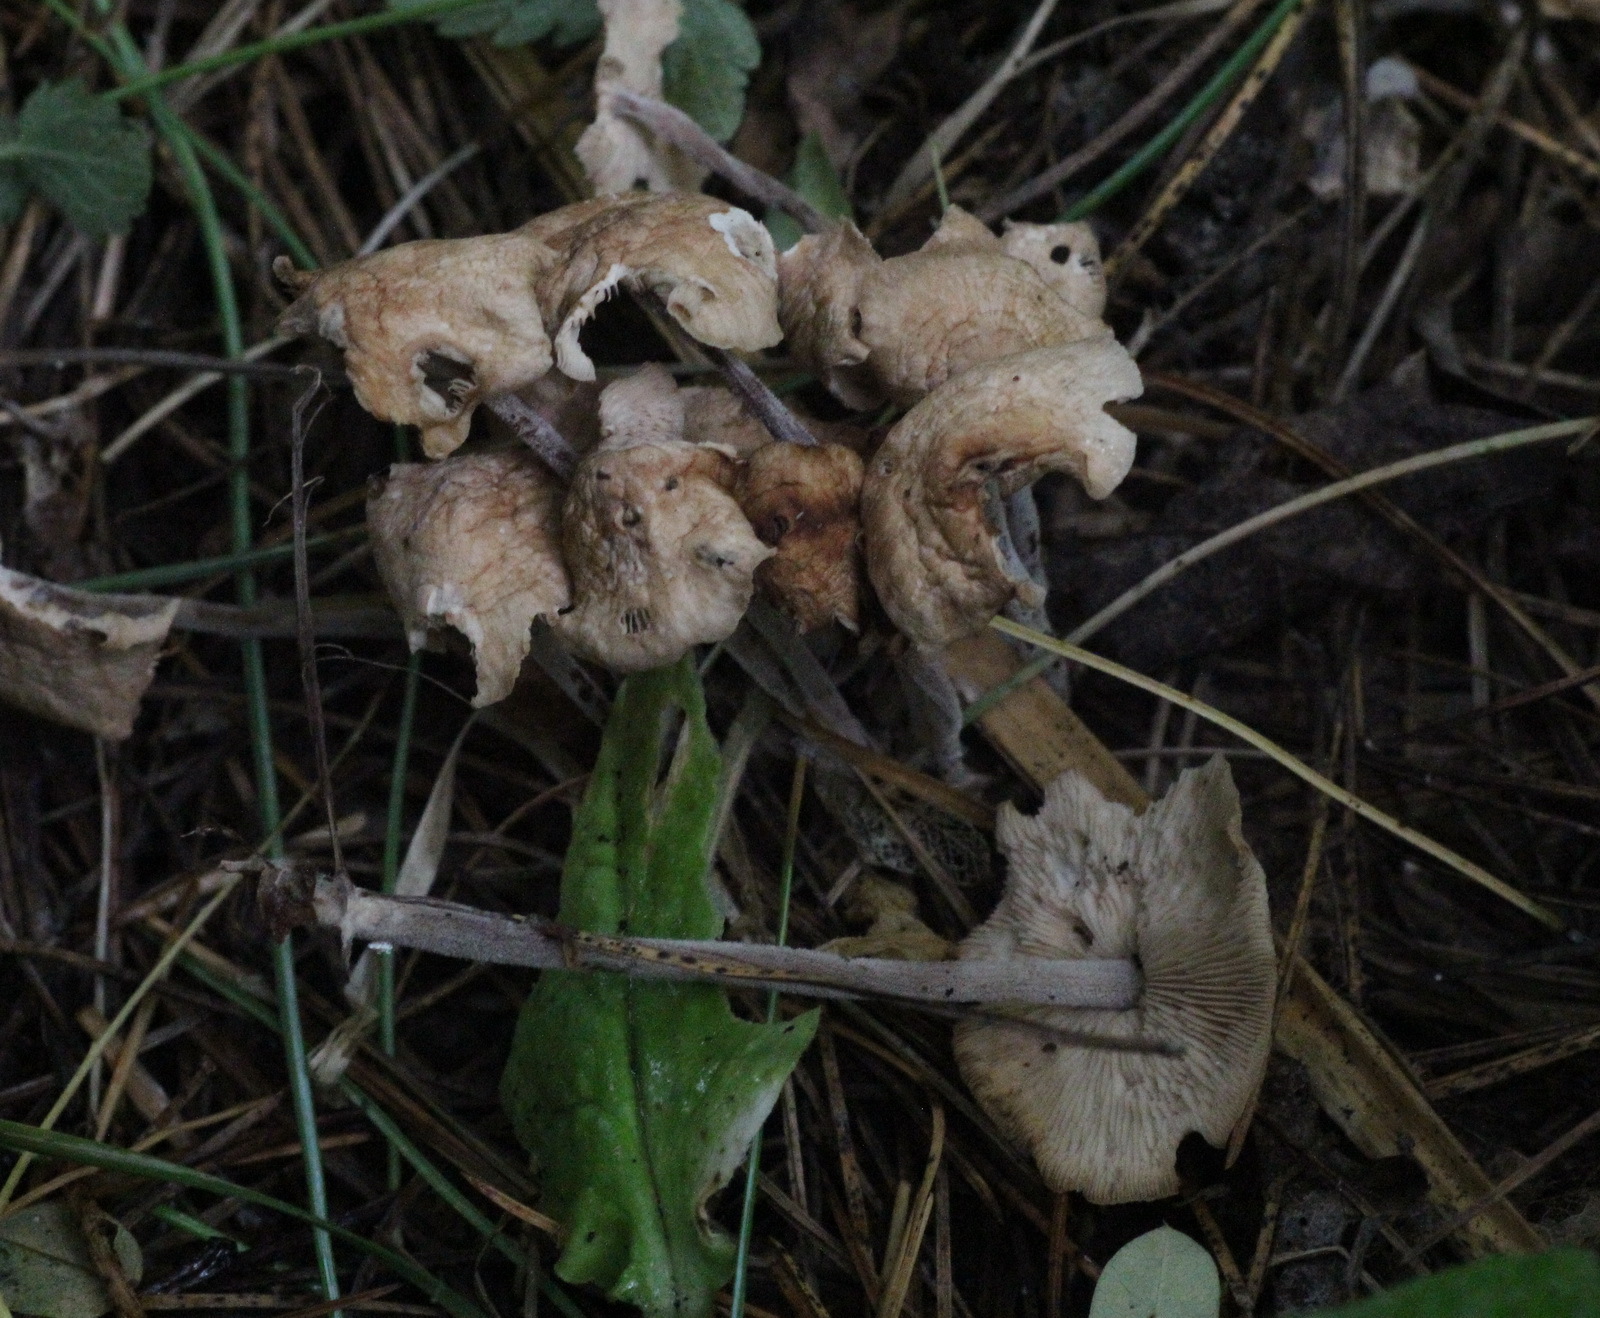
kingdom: Fungi
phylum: Basidiomycota
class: Agaricomycetes
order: Agaricales
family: Omphalotaceae
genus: Collybiopsis
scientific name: Collybiopsis confluens
